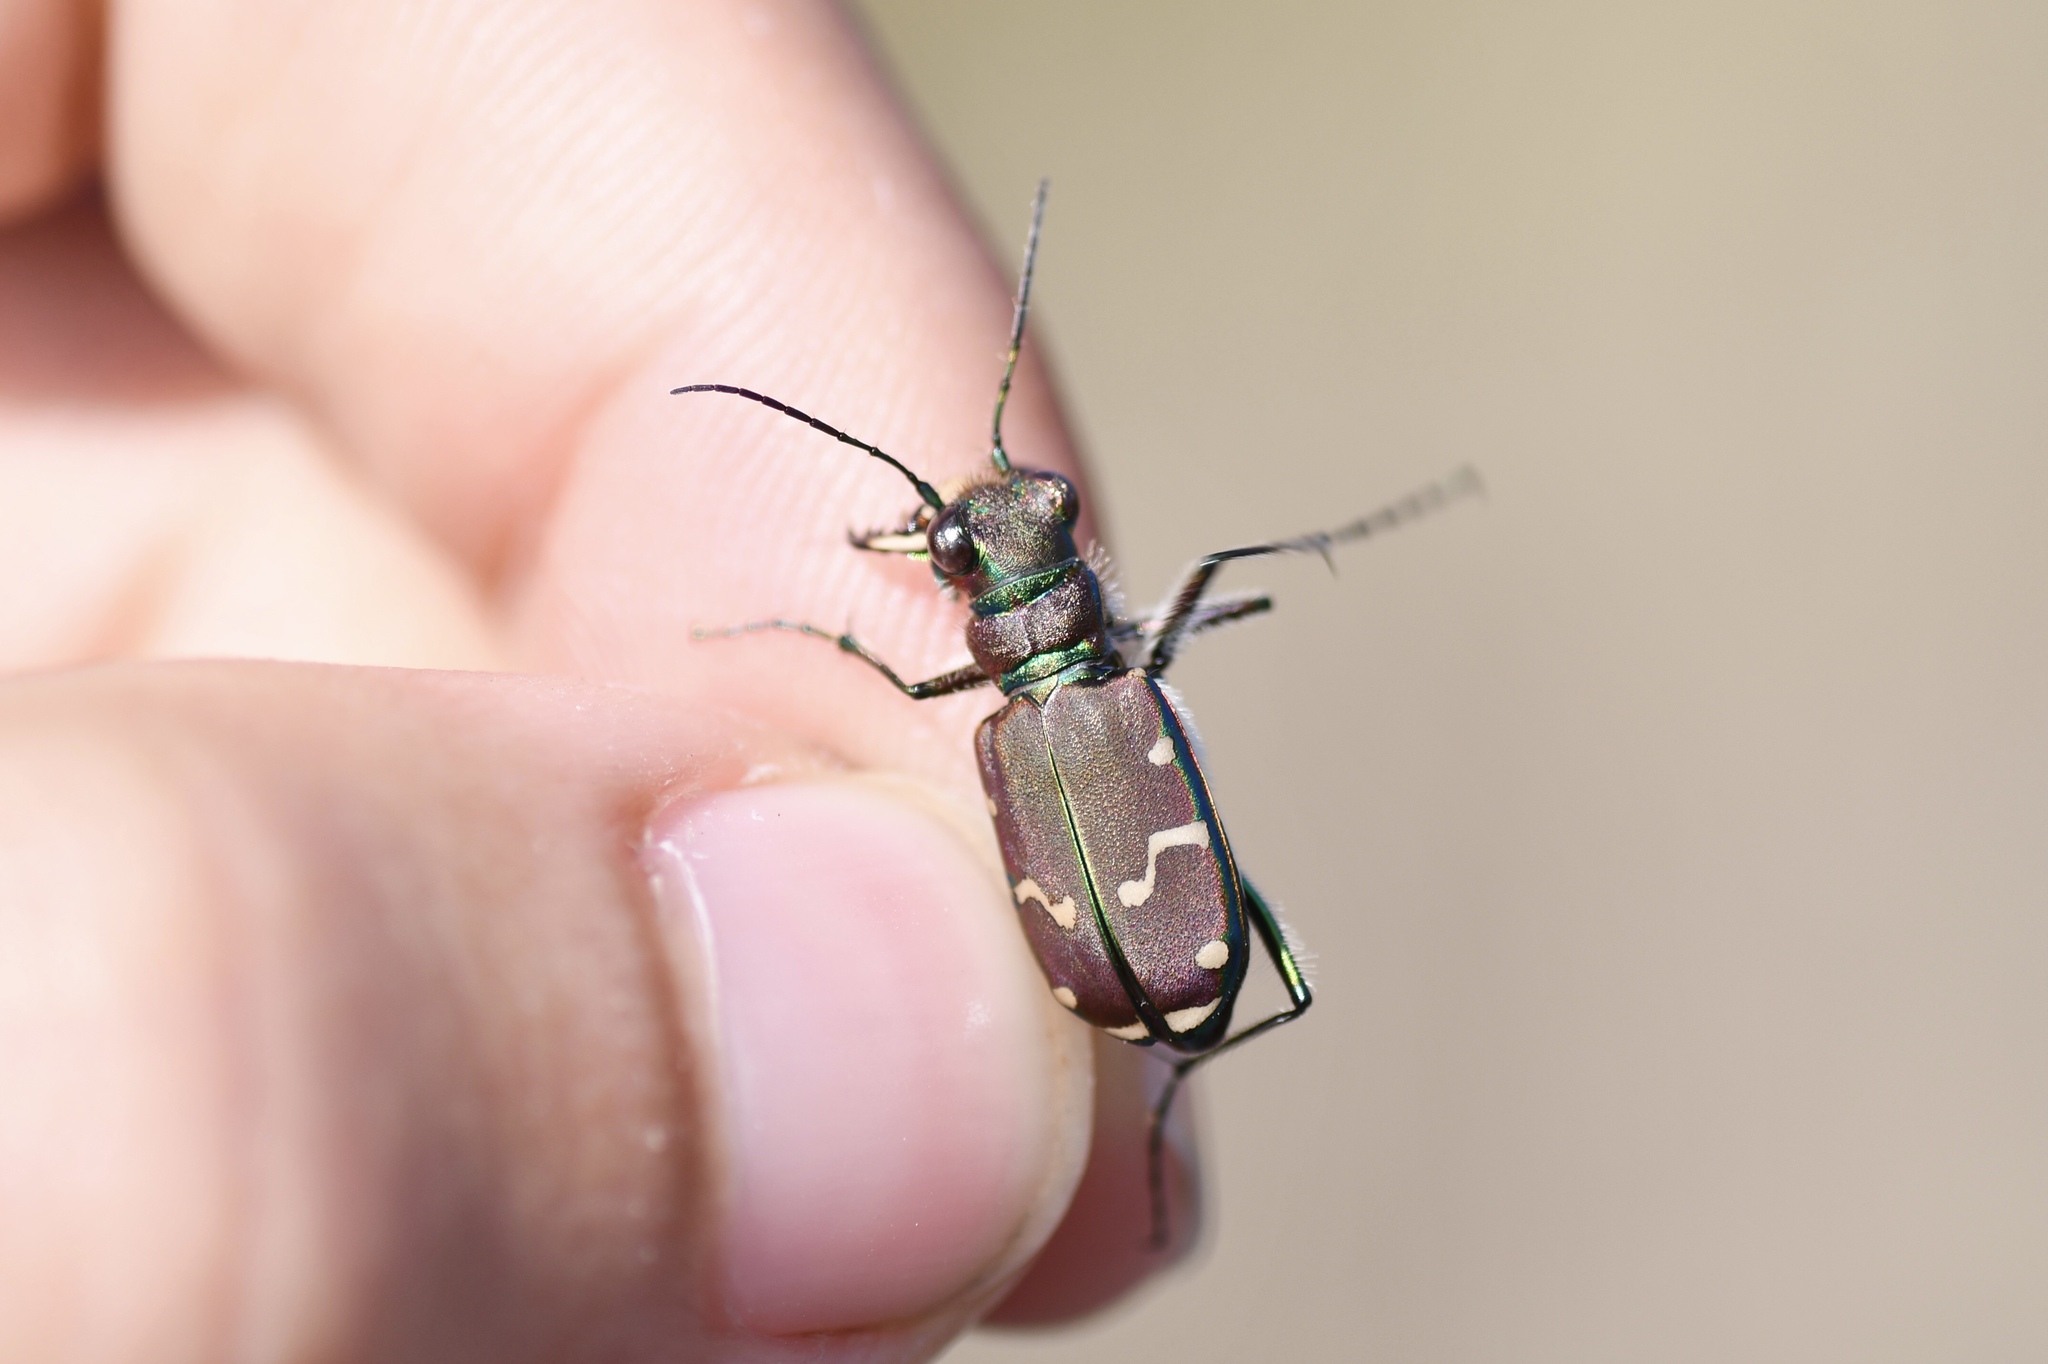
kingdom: Animalia
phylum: Arthropoda
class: Insecta
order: Coleoptera
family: Carabidae
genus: Cicindela
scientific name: Cicindela limbalis
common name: Common claybank tiger beetle
